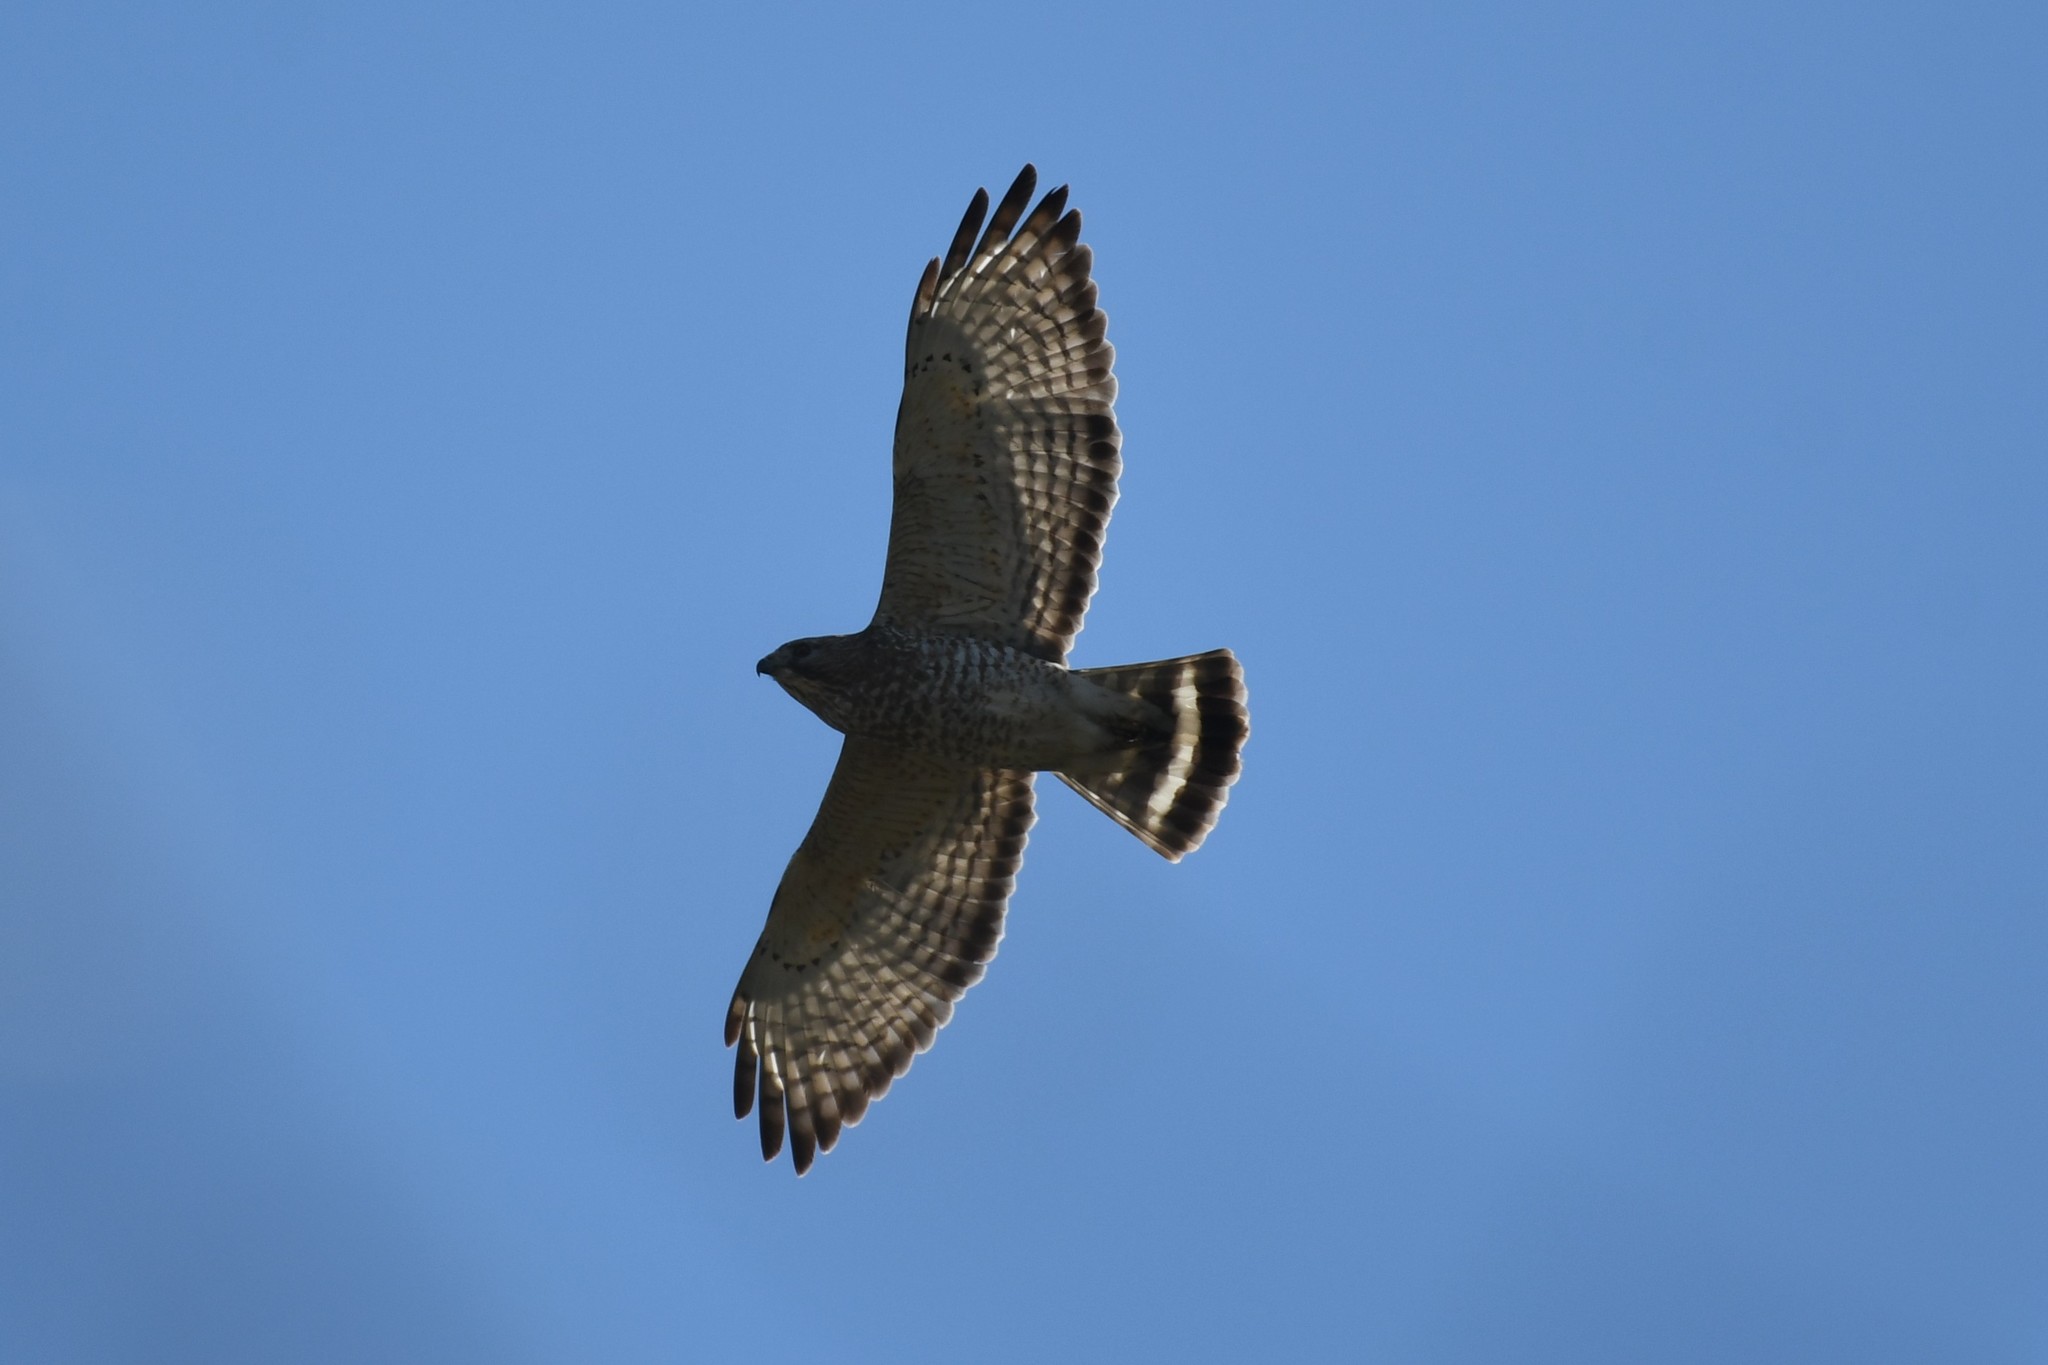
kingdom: Animalia
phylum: Chordata
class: Aves
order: Accipitriformes
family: Accipitridae
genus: Buteo
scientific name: Buteo platypterus
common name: Broad-winged hawk
